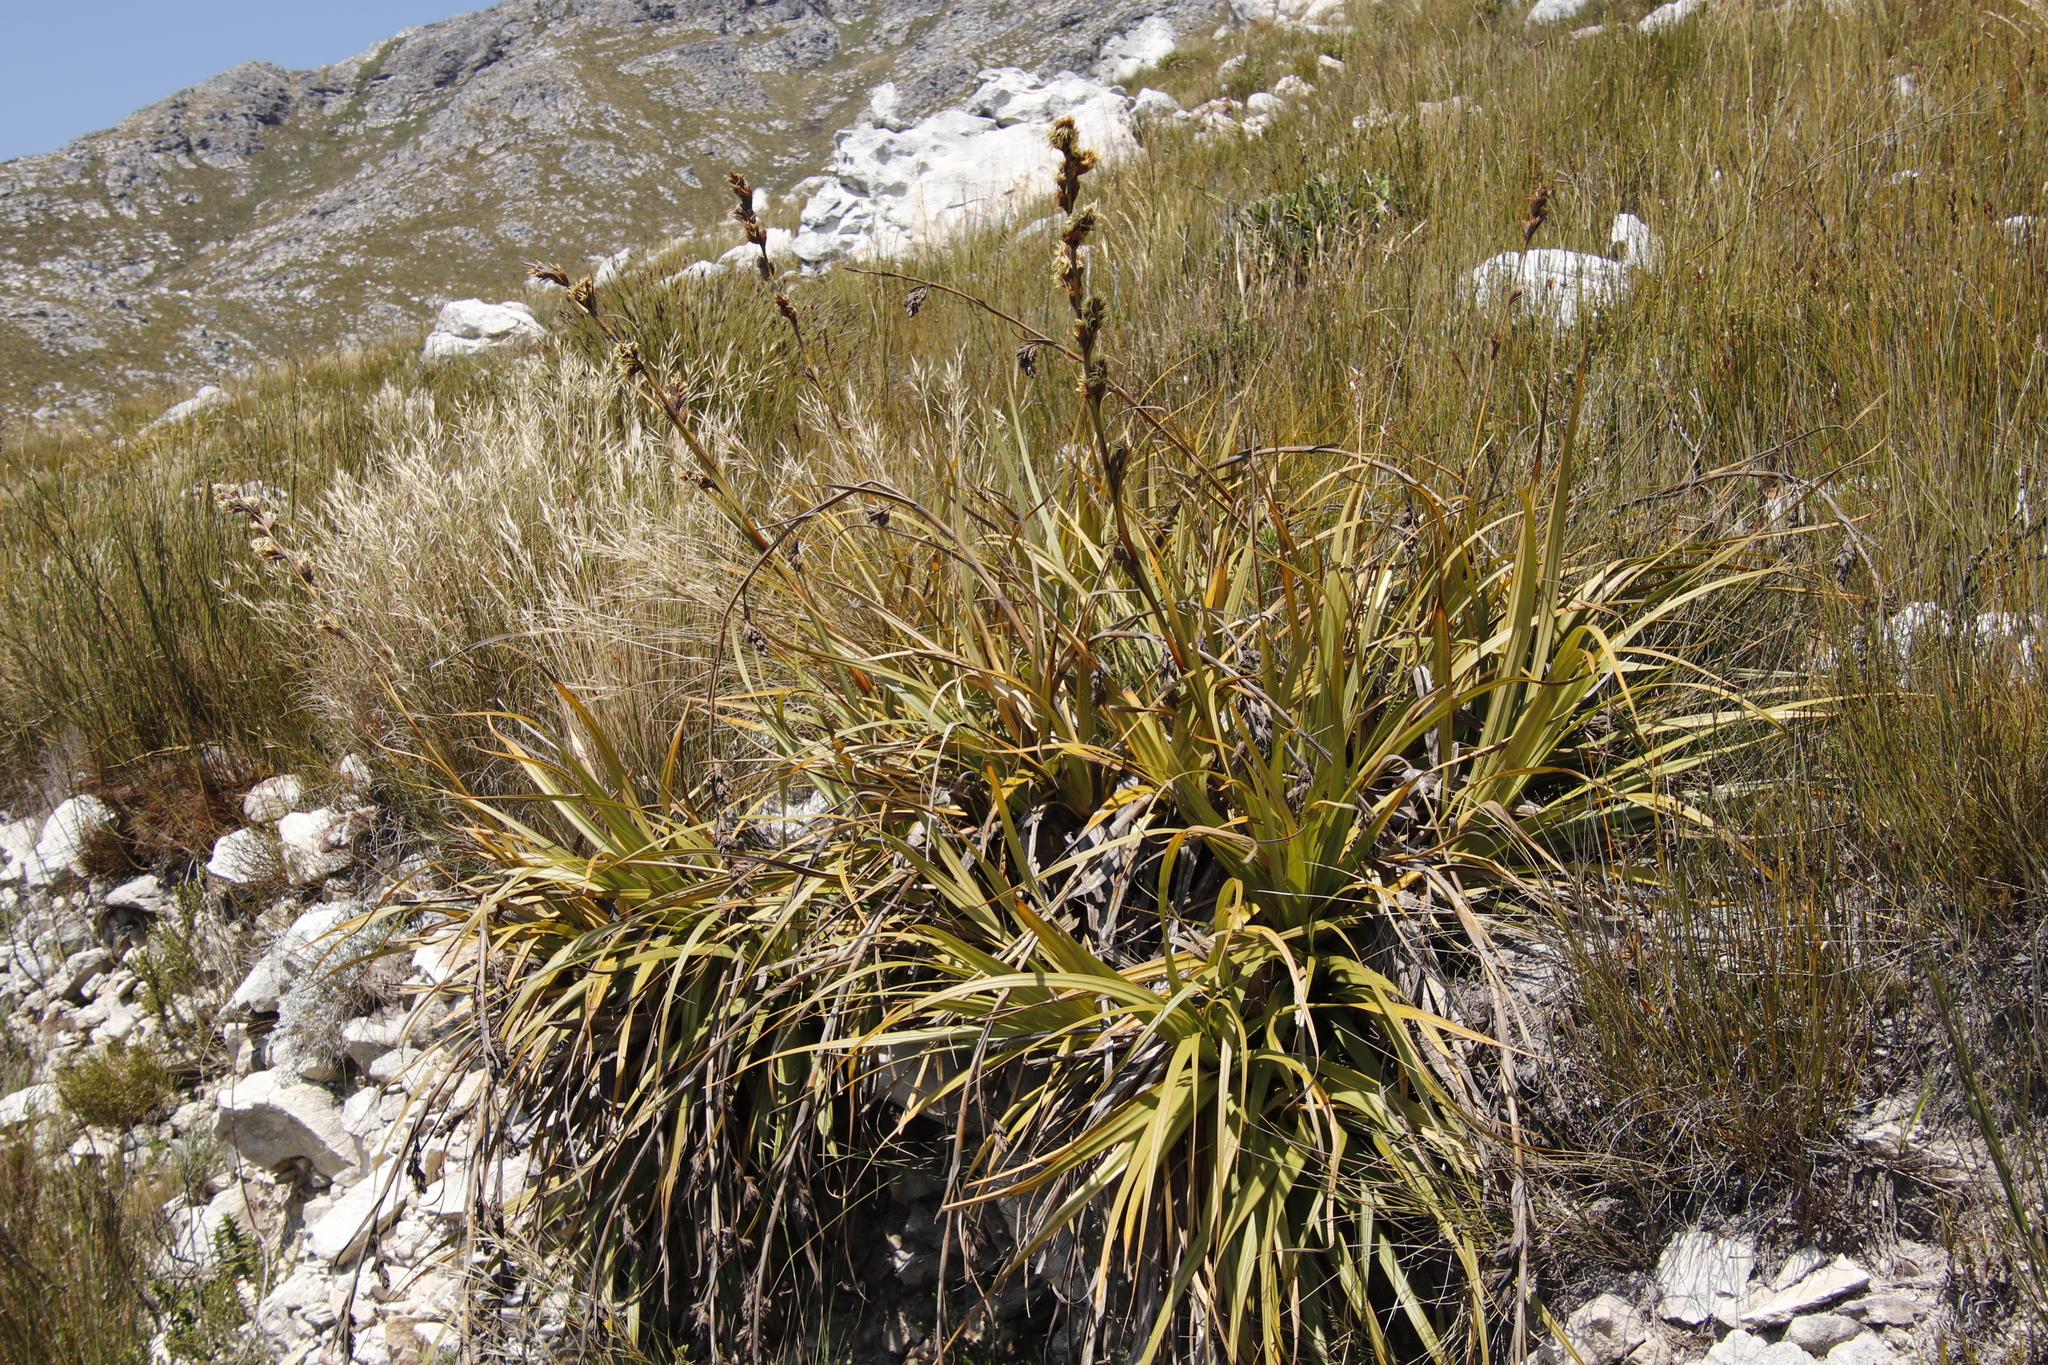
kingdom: Plantae
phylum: Tracheophyta
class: Liliopsida
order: Poales
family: Cyperaceae
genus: Tetraria
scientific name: Tetraria thermalis
